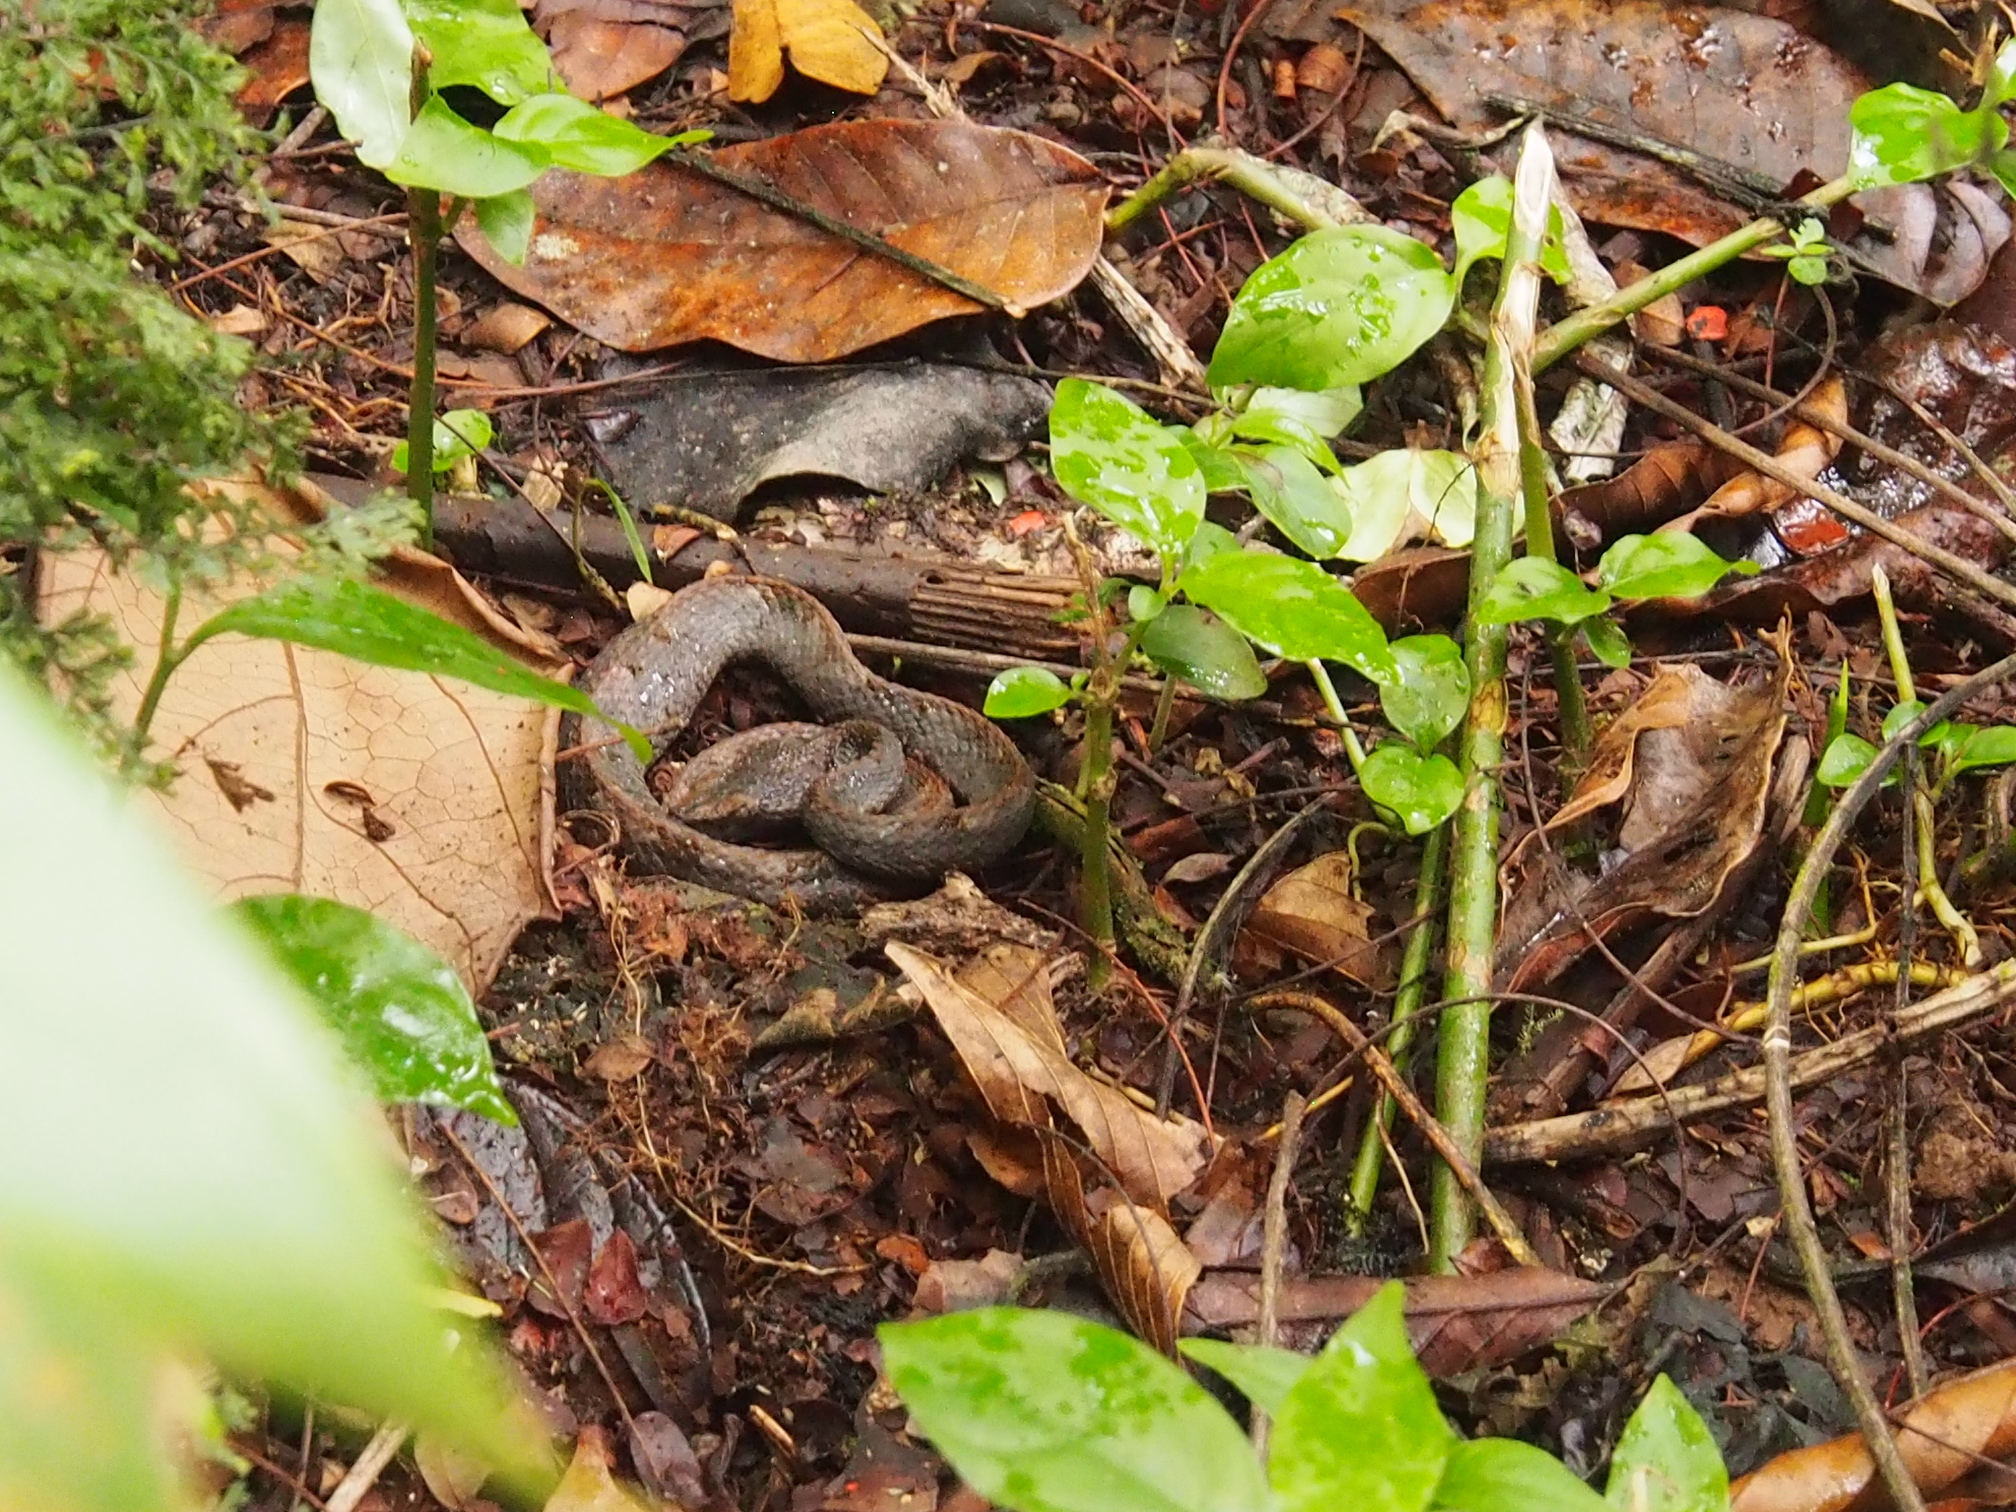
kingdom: Animalia
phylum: Chordata
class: Squamata
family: Viperidae
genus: Porthidium
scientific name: Porthidium nasutum
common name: Hognosed pit viper
